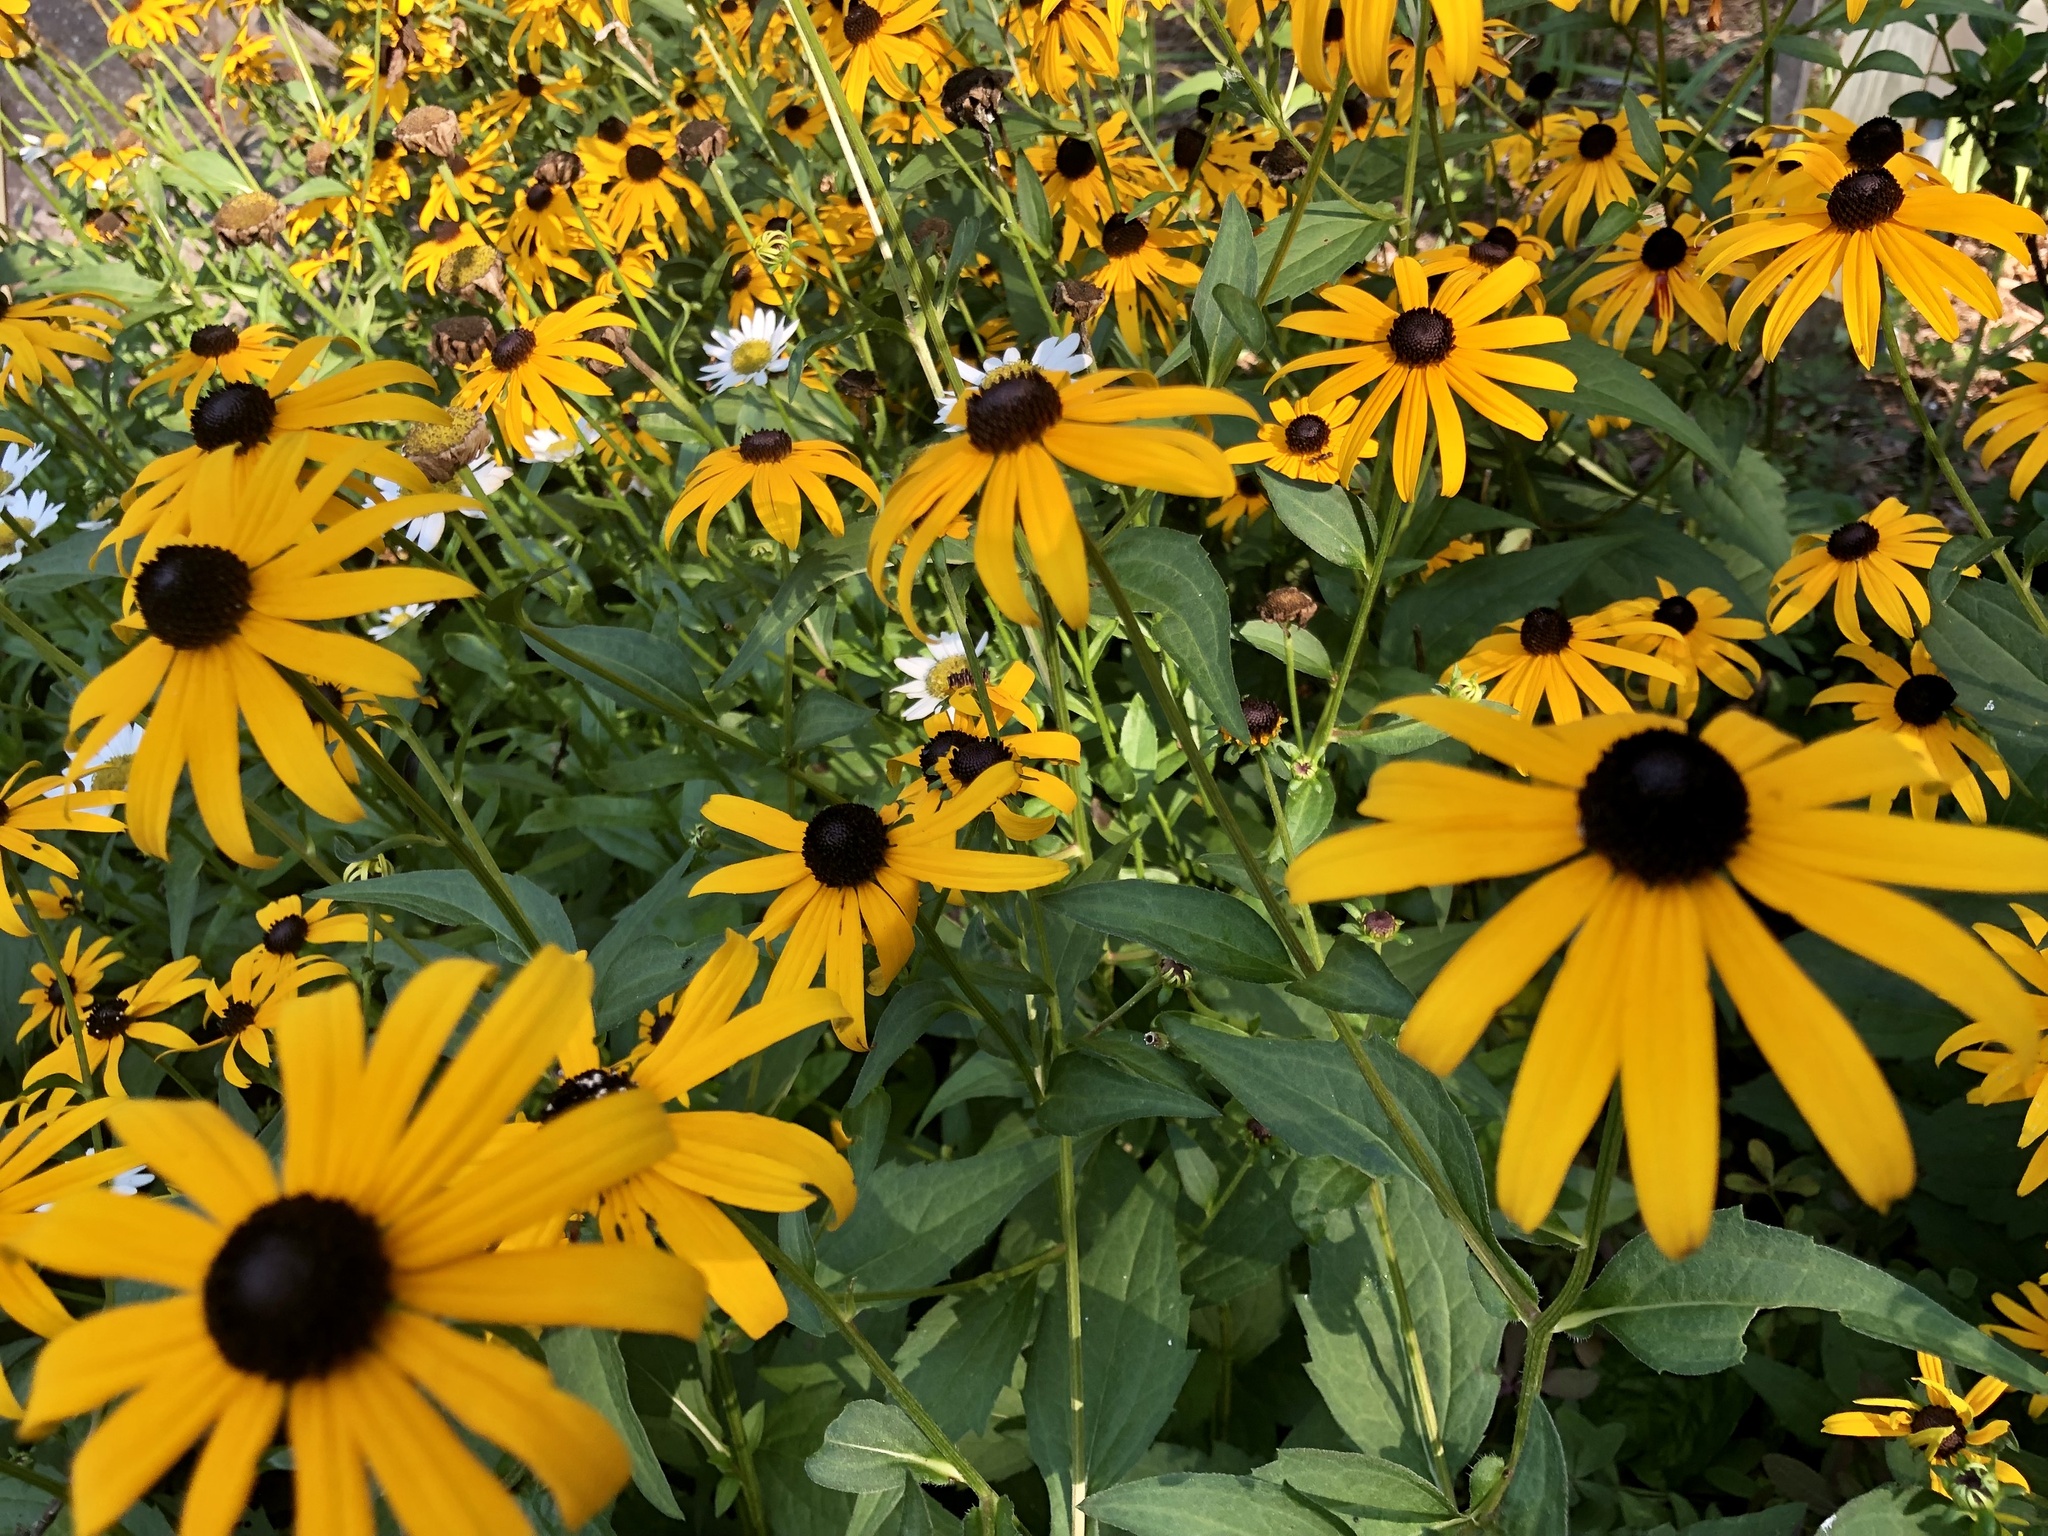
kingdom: Plantae
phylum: Tracheophyta
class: Magnoliopsida
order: Asterales
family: Asteraceae
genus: Rudbeckia
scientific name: Rudbeckia hirta
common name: Black-eyed-susan
